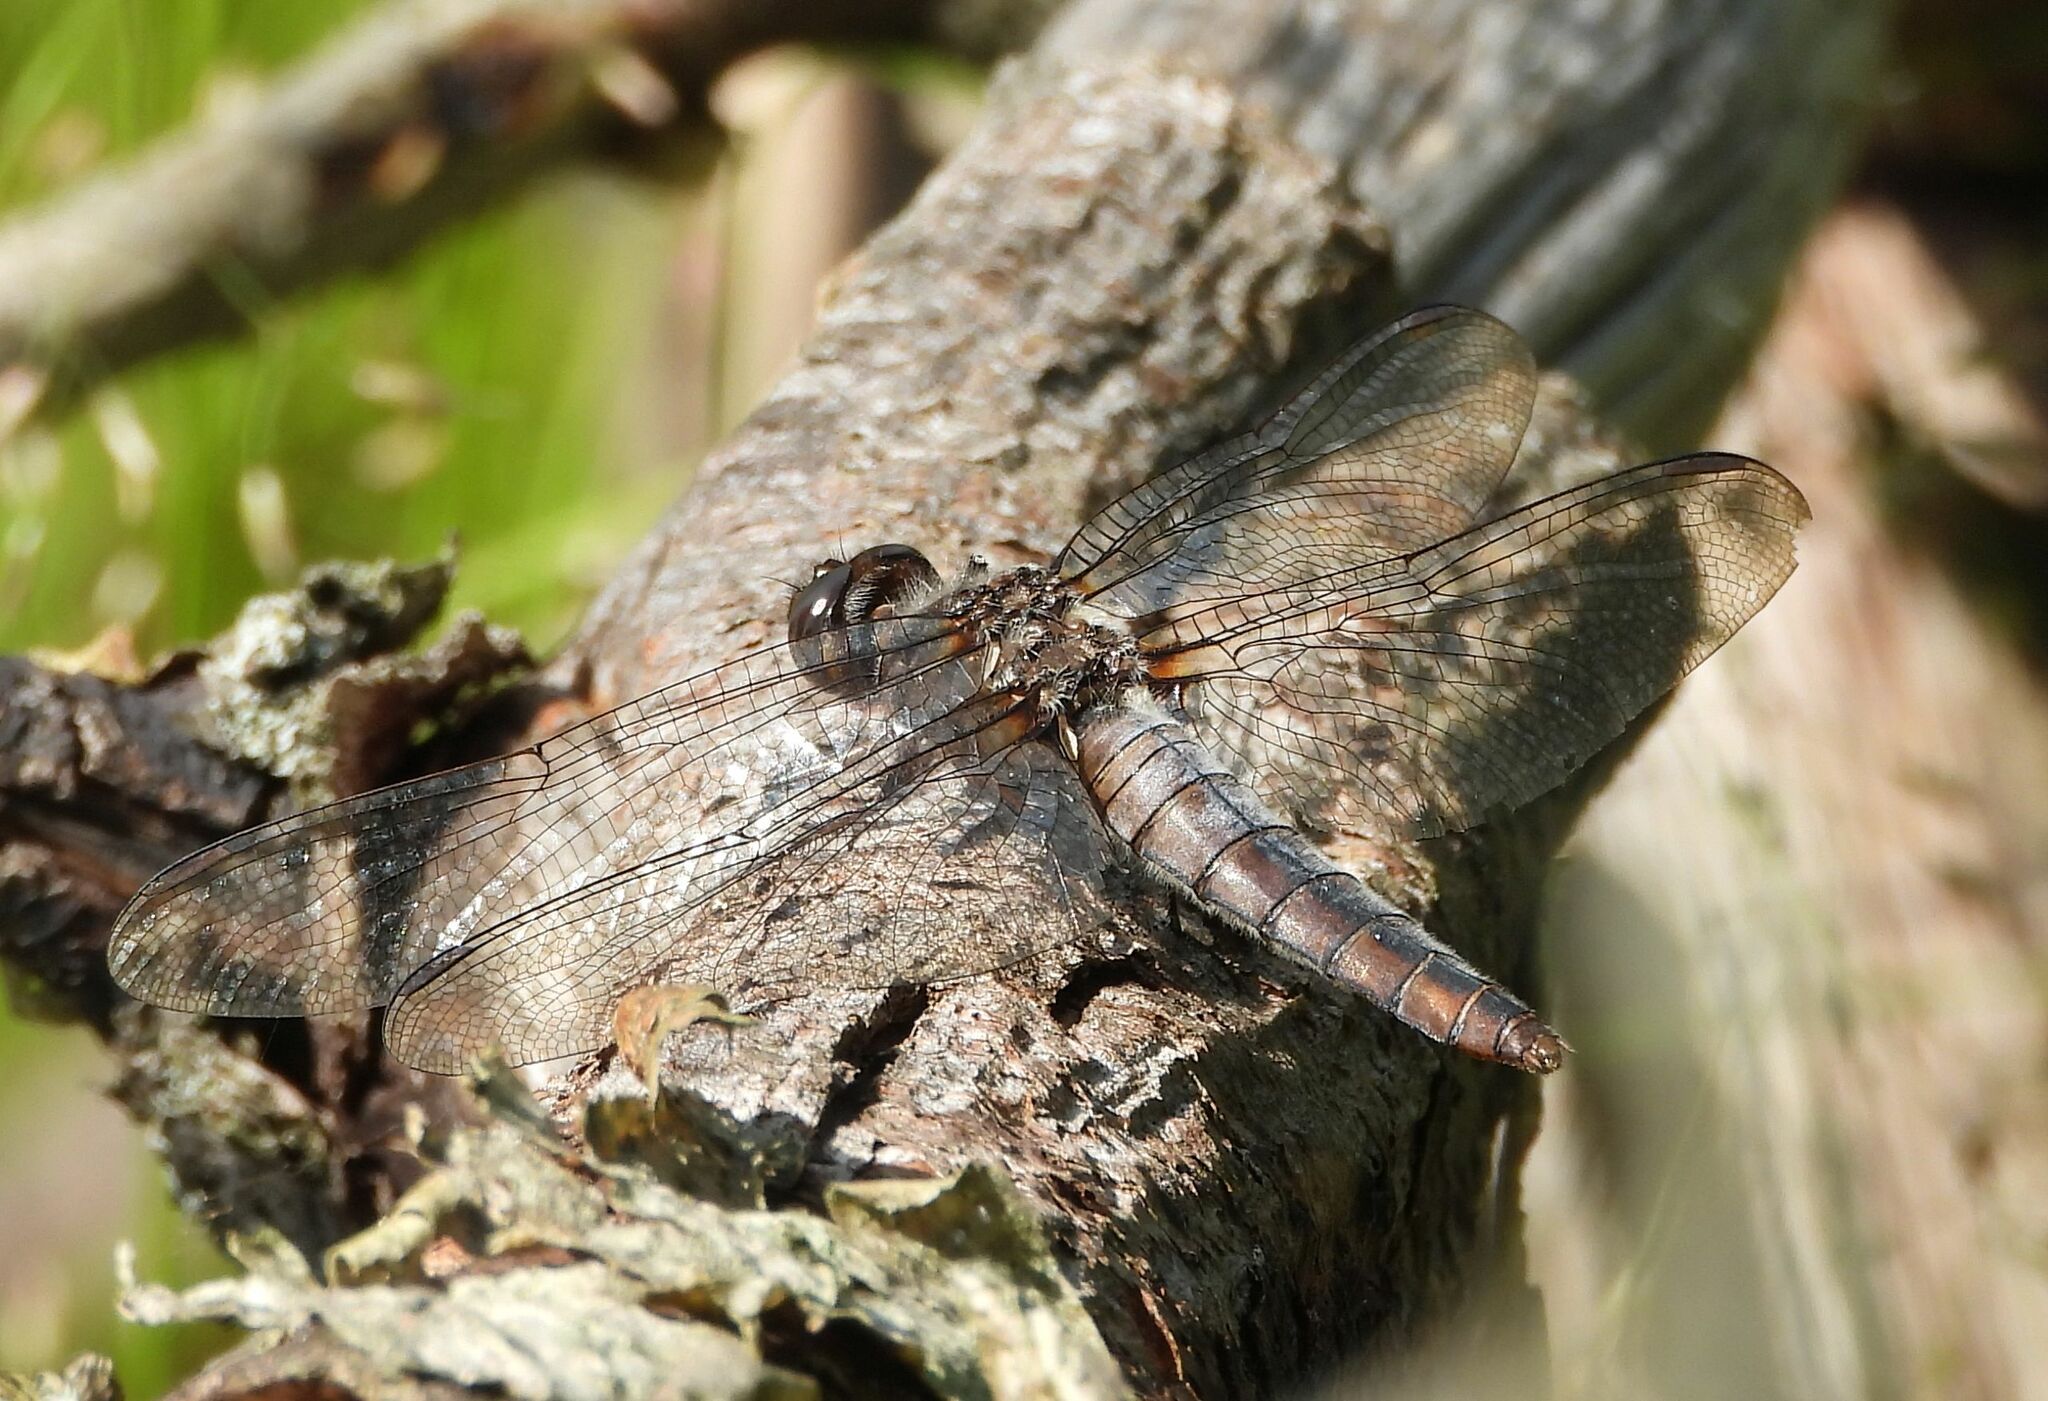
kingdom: Animalia
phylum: Arthropoda
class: Insecta
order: Odonata
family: Libellulidae
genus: Ladona
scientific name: Ladona julia
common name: Chalk-fronted corporal
